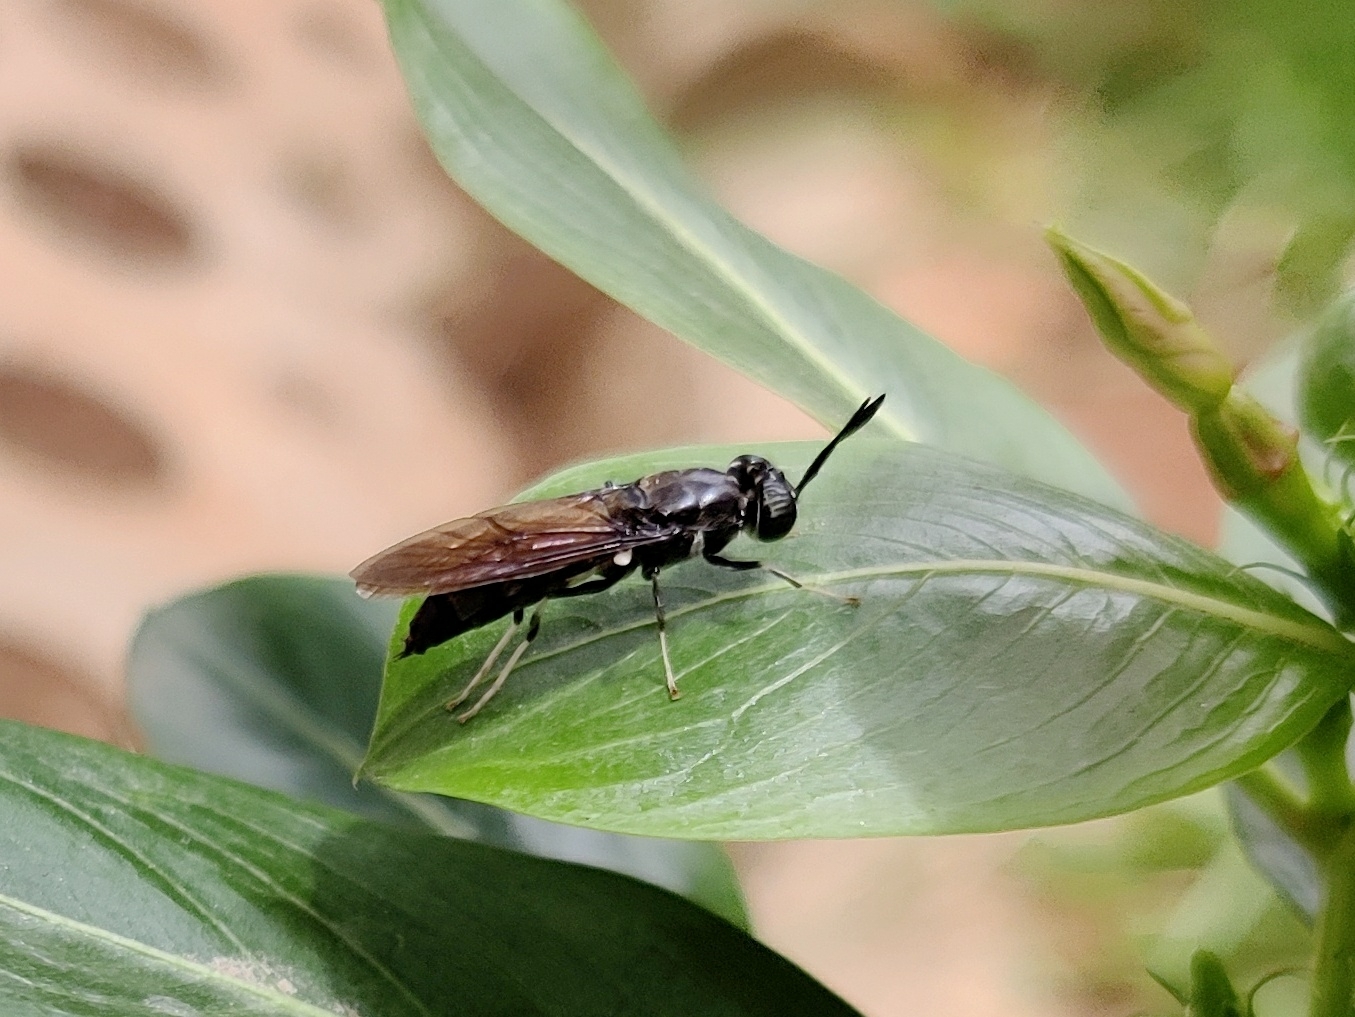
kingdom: Animalia
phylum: Arthropoda
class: Insecta
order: Diptera
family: Stratiomyidae
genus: Hermetia
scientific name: Hermetia illucens
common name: Black soldier fly
